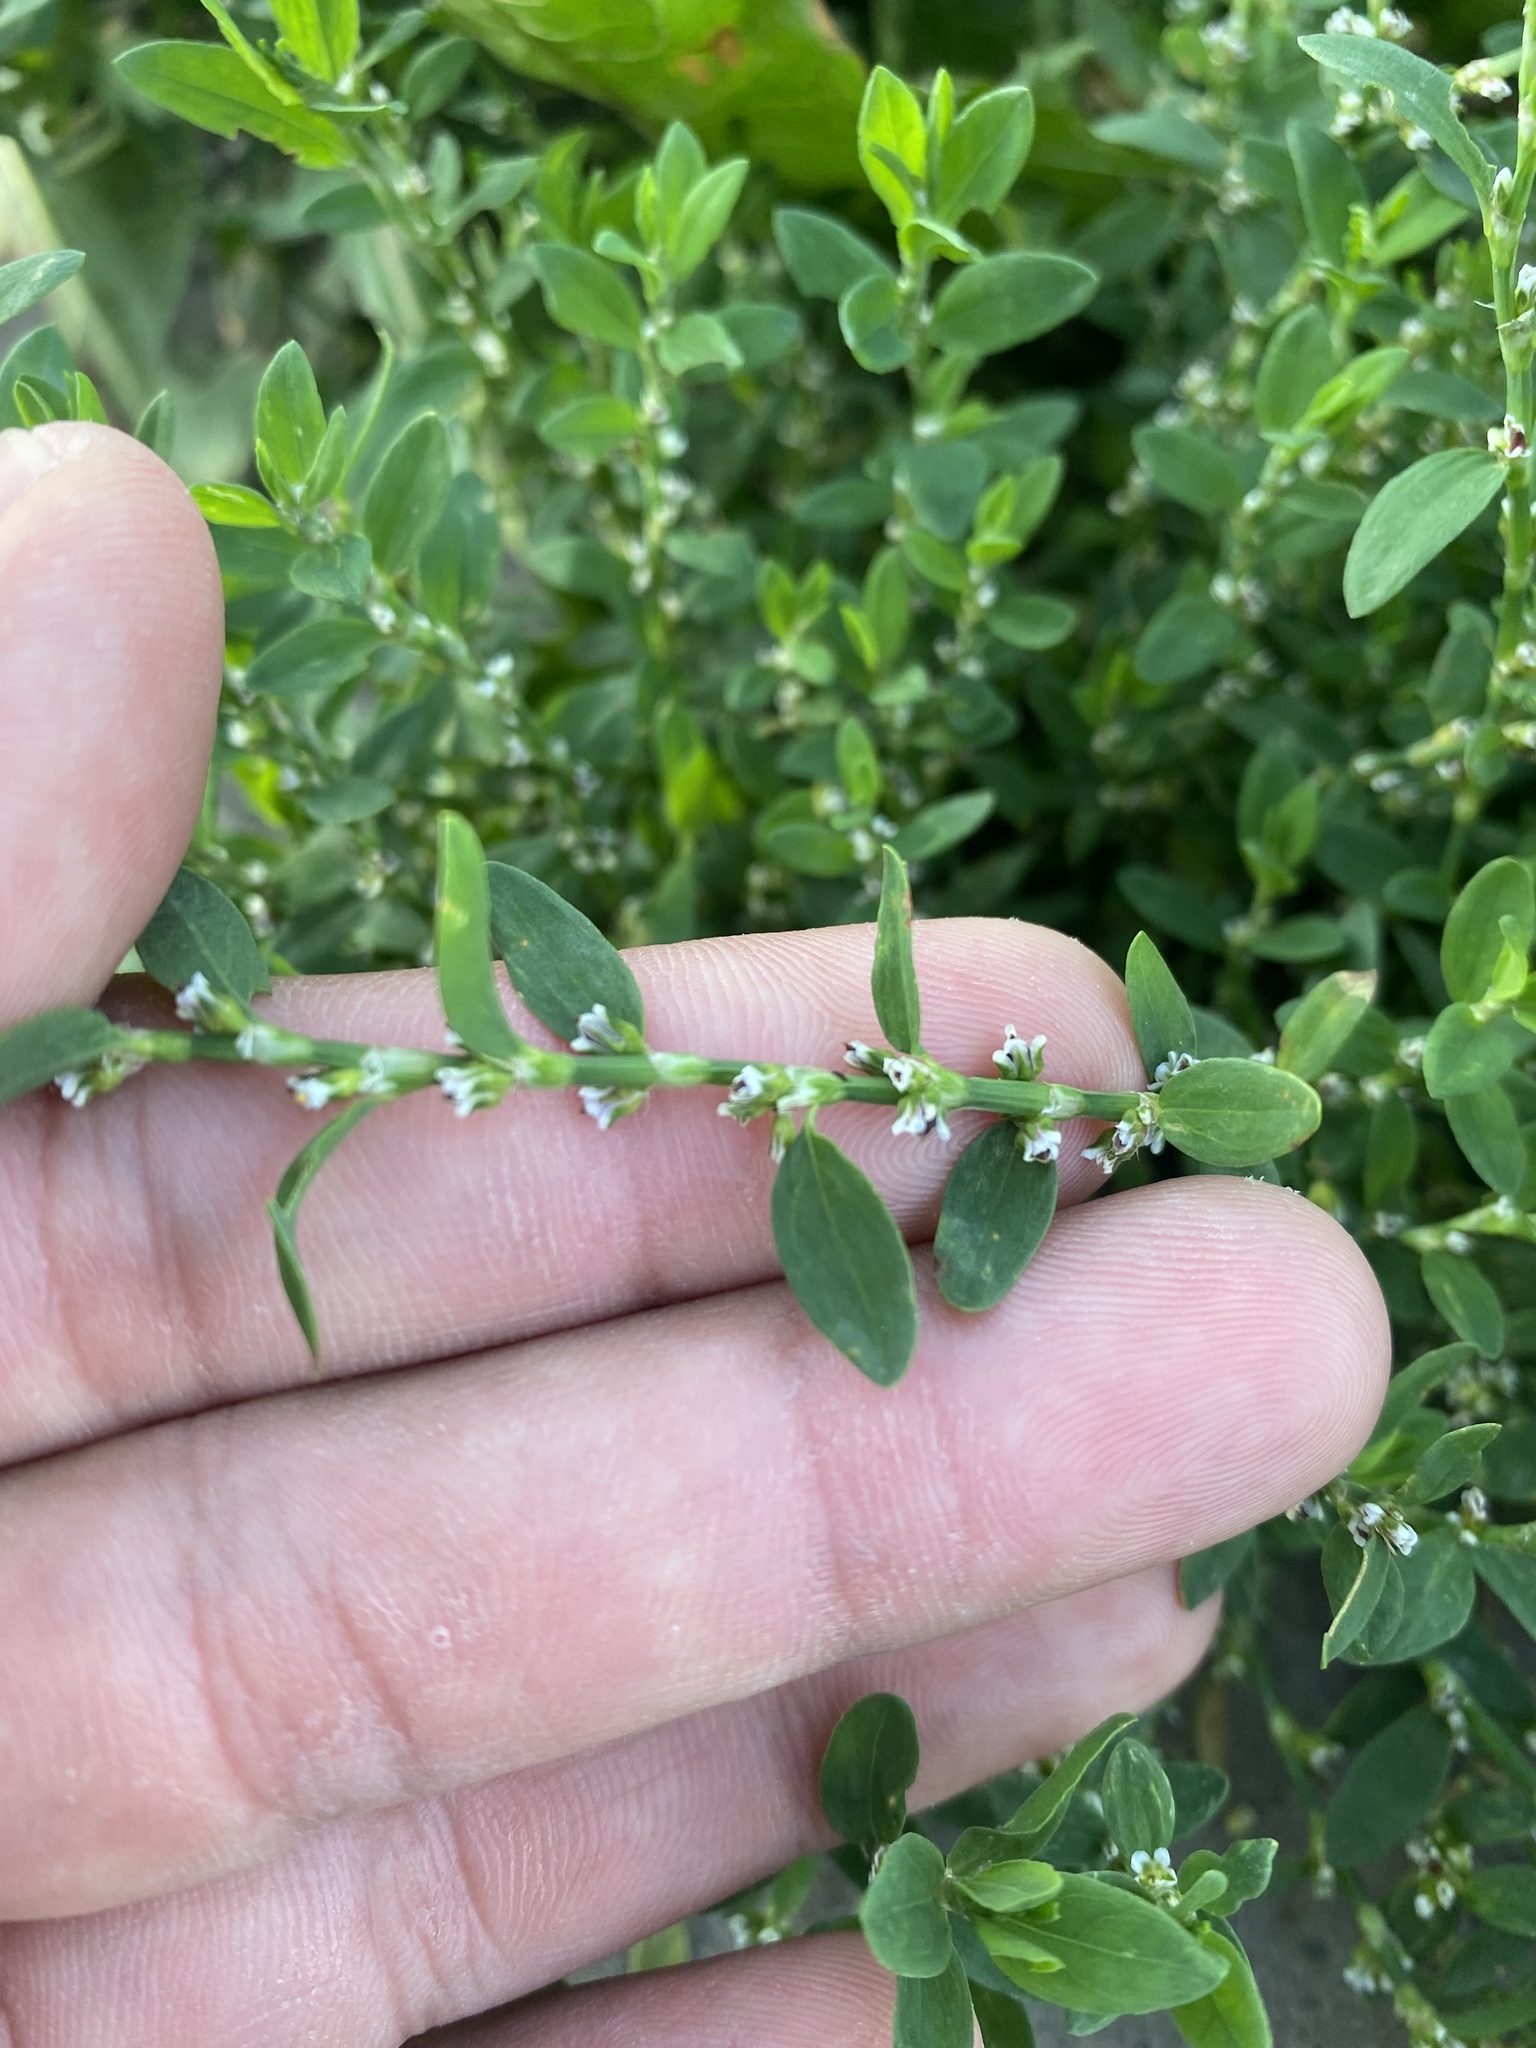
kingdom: Plantae
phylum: Tracheophyta
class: Magnoliopsida
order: Caryophyllales
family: Polygonaceae
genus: Polygonum
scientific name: Polygonum
